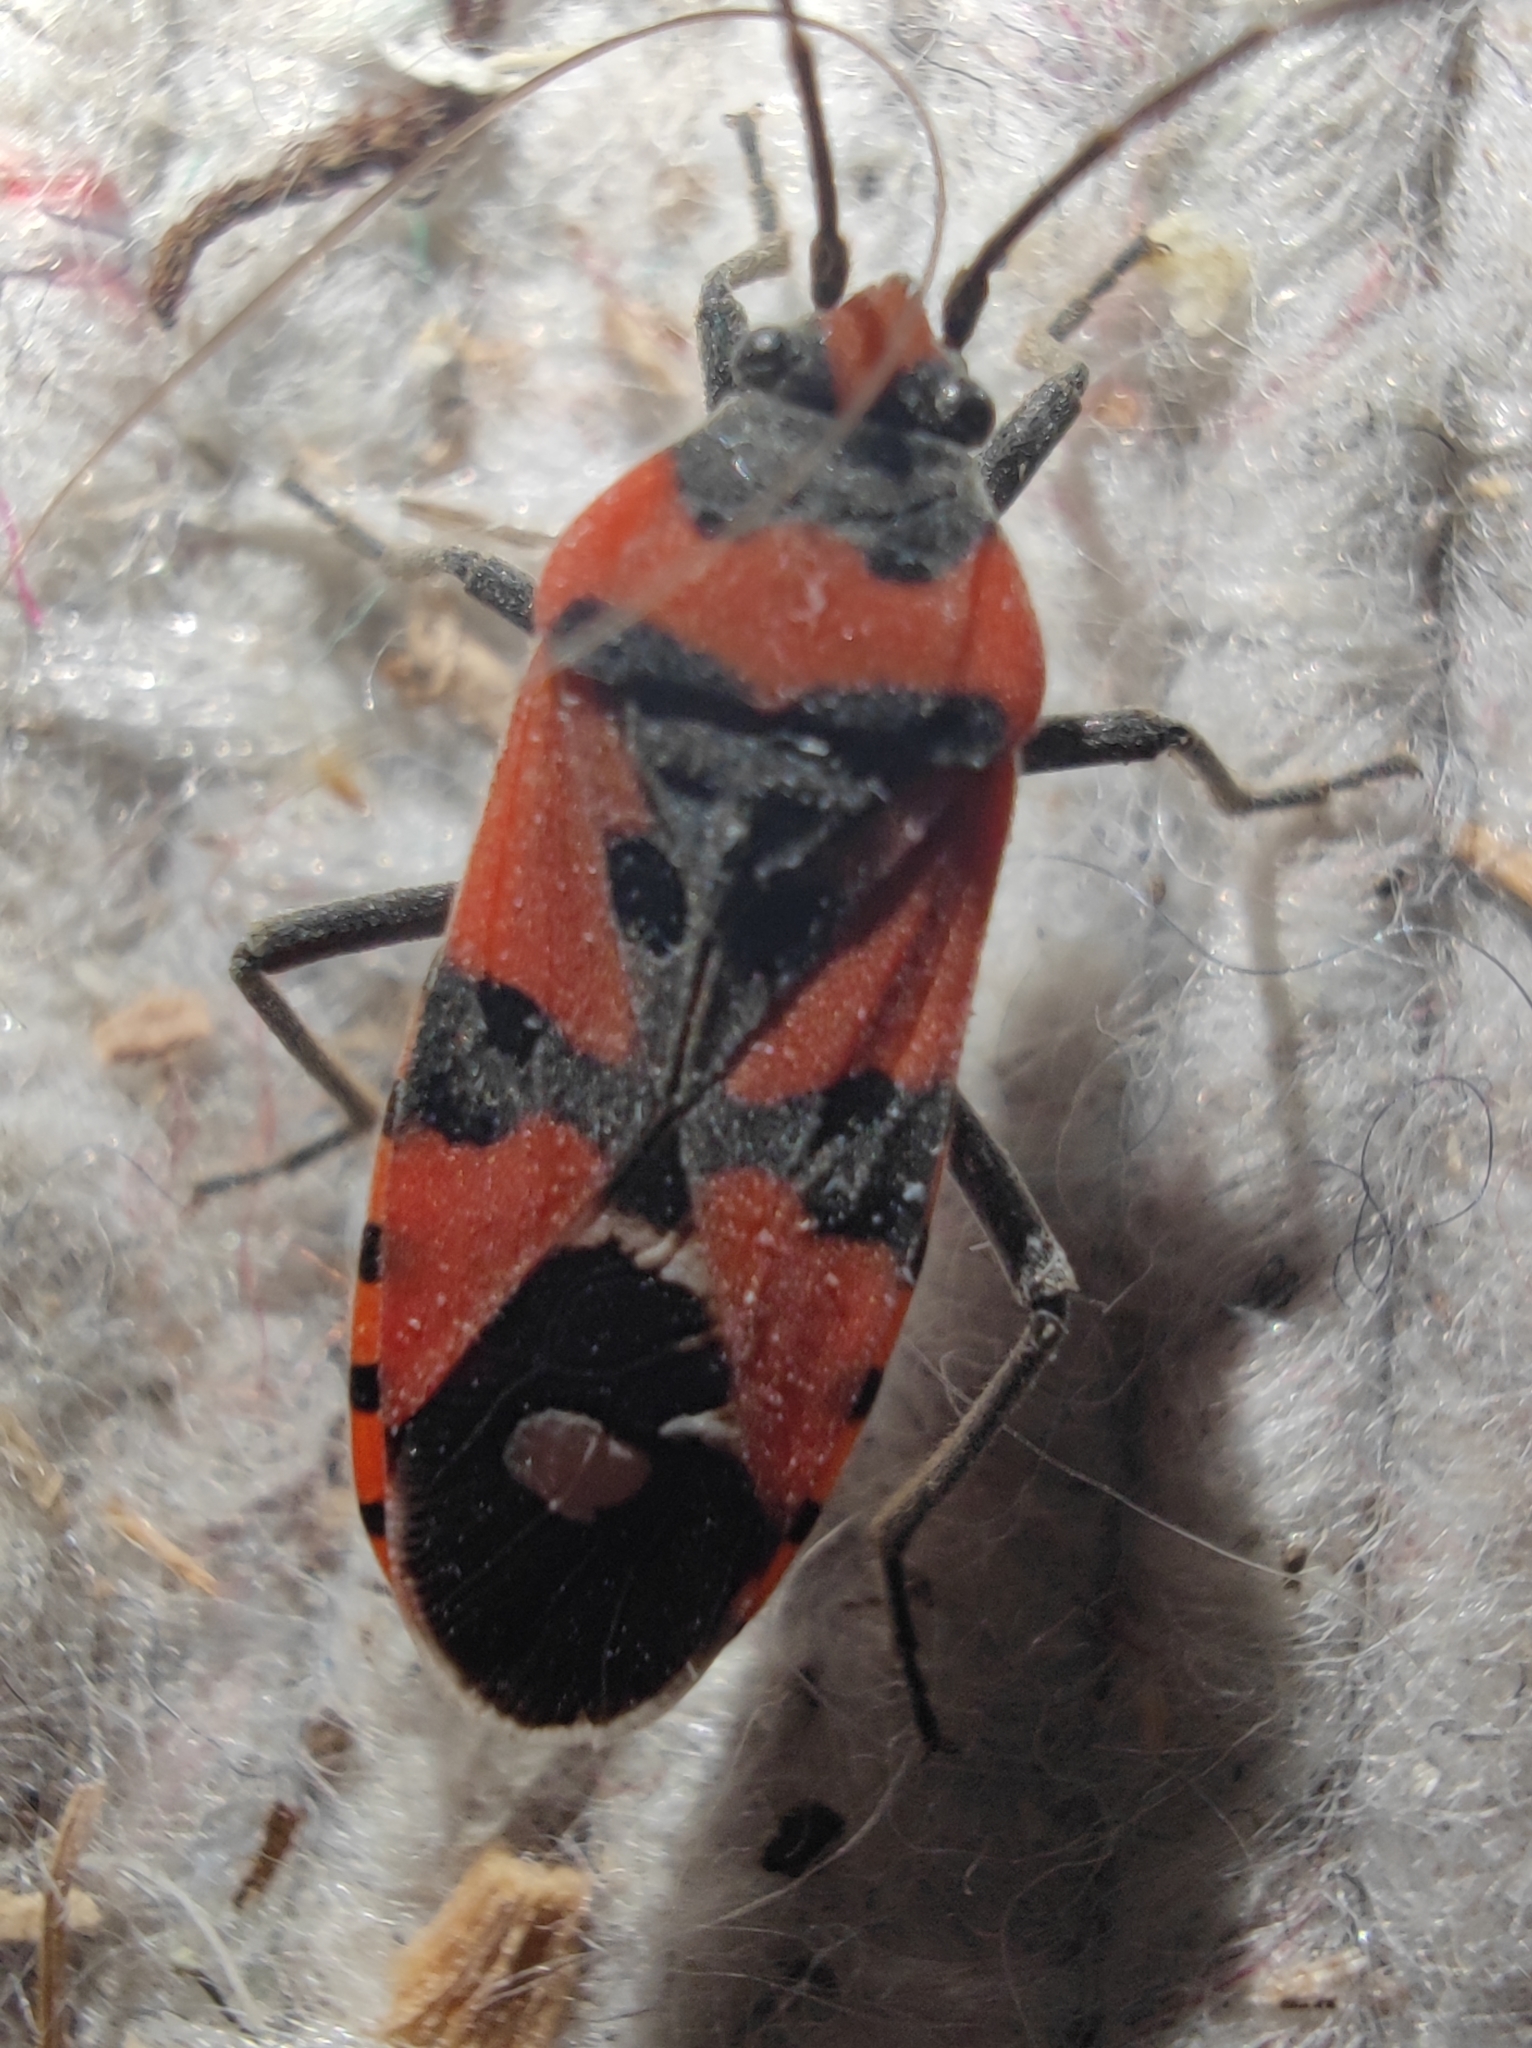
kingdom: Animalia
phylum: Arthropoda
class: Insecta
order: Hemiptera
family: Lygaeidae
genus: Lygaeus
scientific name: Lygaeus equestris
